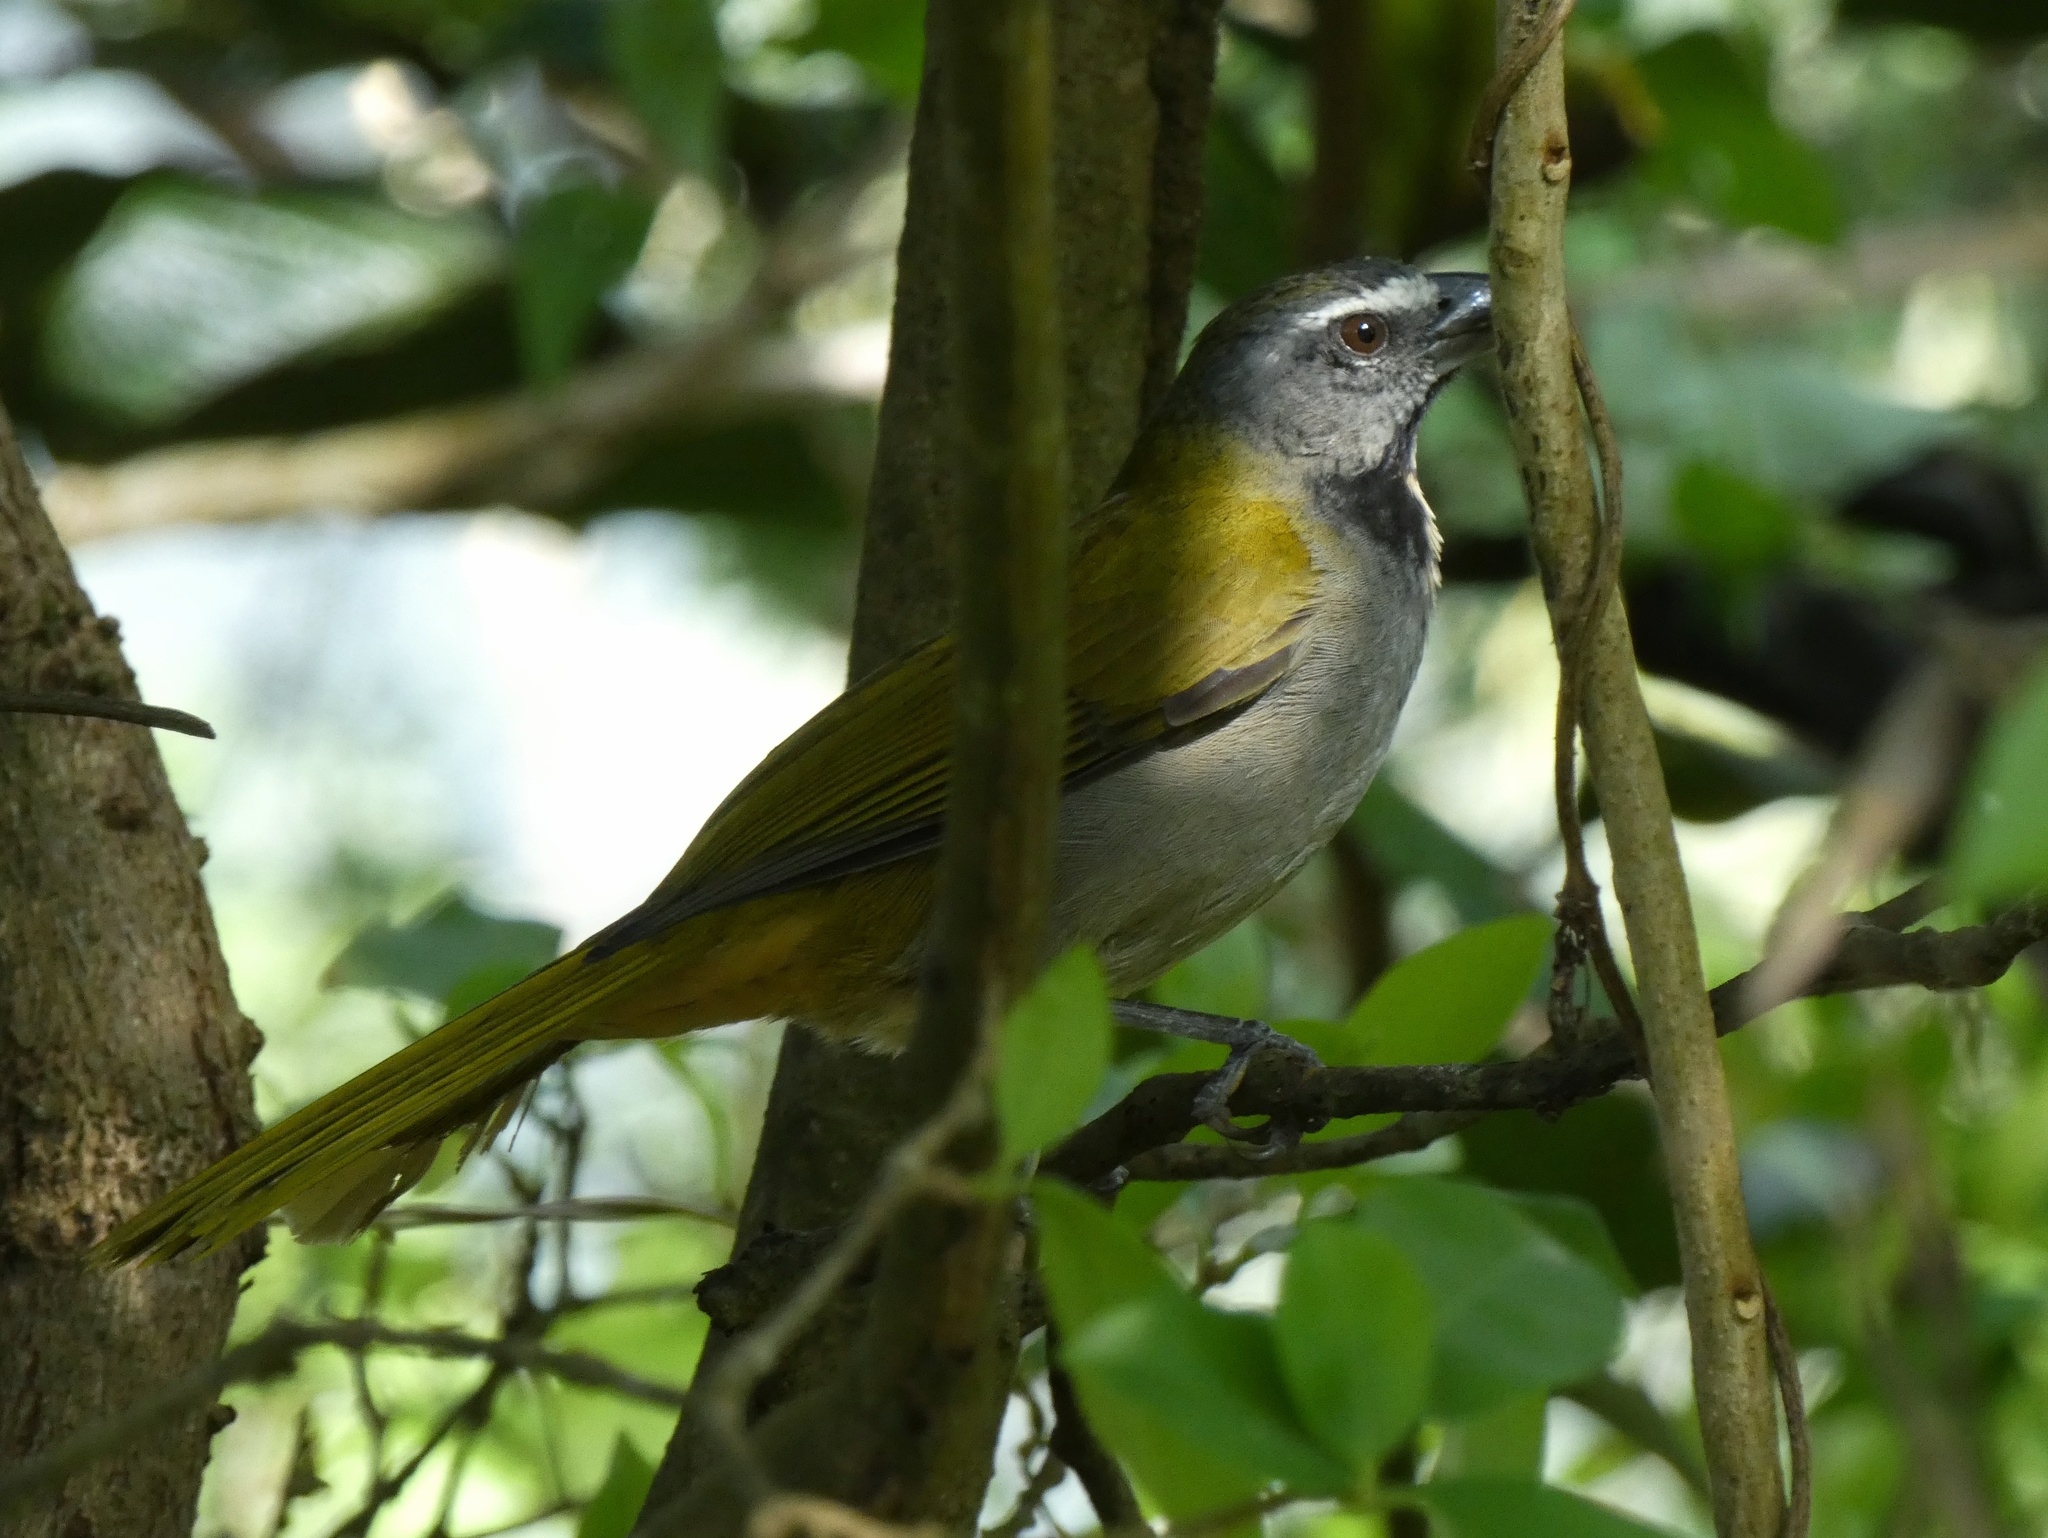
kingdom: Animalia
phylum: Chordata
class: Aves
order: Passeriformes
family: Thraupidae
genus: Saltator
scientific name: Saltator maximus
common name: Buff-throated saltator
